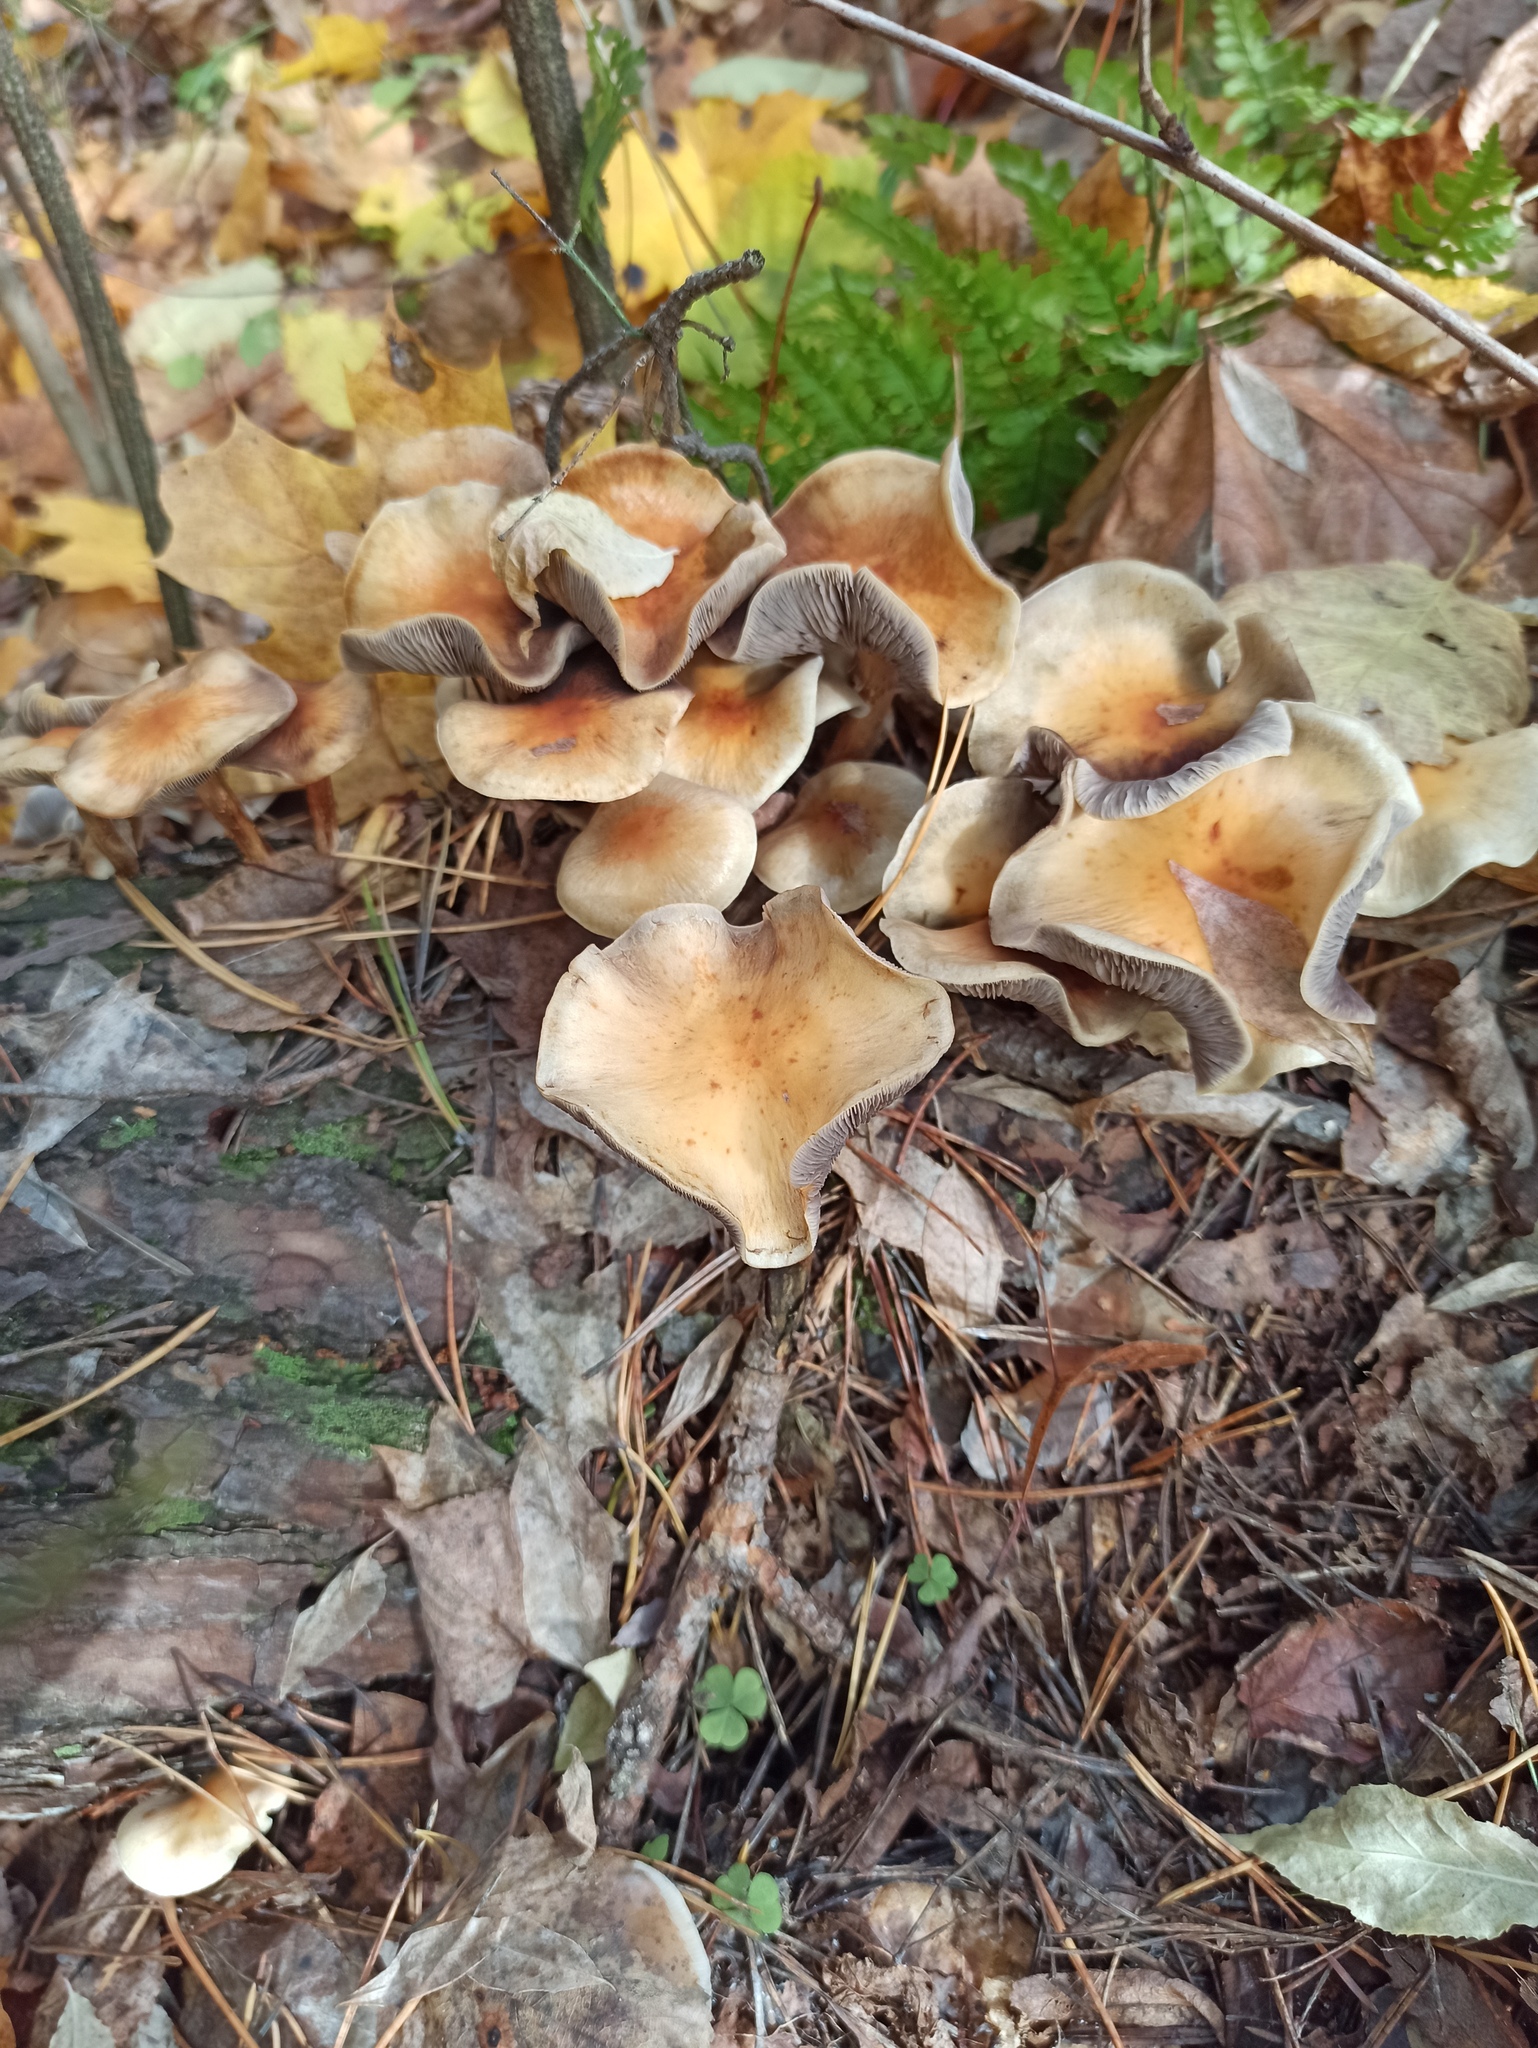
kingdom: Fungi
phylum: Basidiomycota
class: Agaricomycetes
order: Agaricales
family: Strophariaceae
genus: Hypholoma
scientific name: Hypholoma capnoides
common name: Conifer tuft
